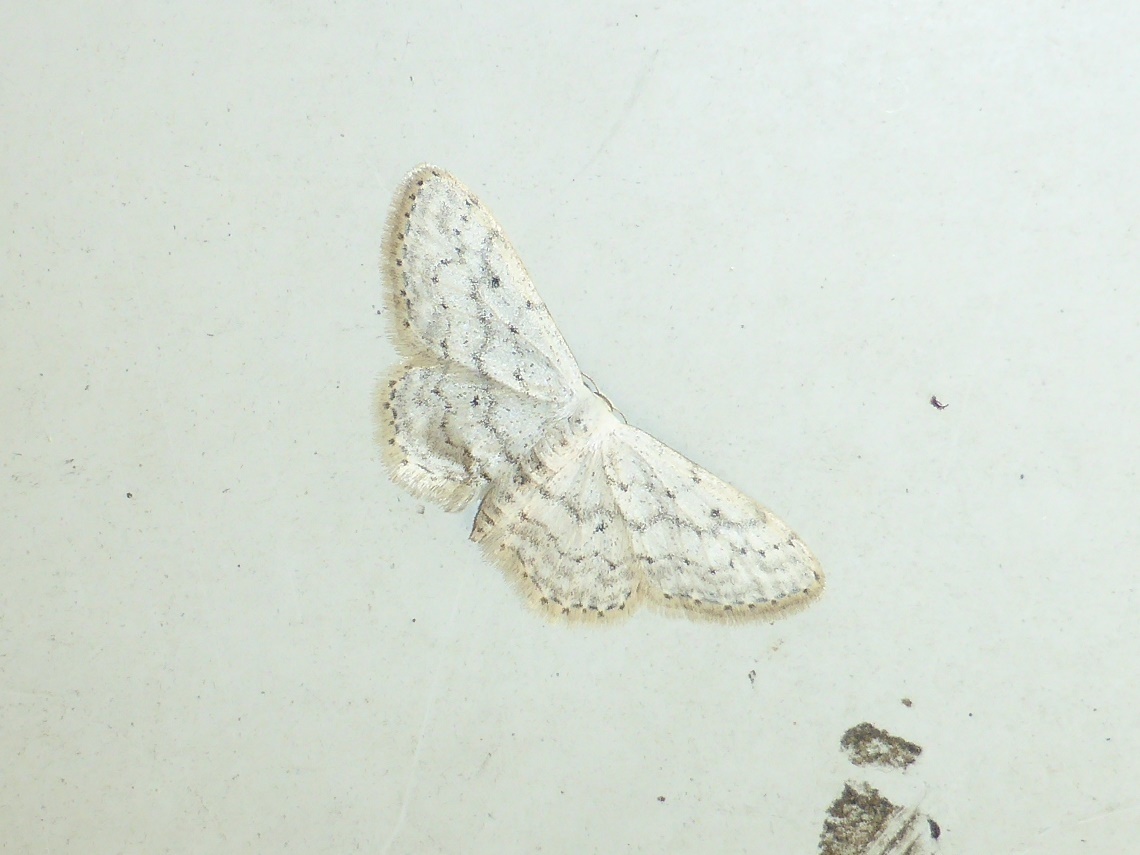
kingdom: Animalia
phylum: Arthropoda
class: Insecta
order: Lepidoptera
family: Geometridae
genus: Idaea
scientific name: Idaea seriata
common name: Small dusty wave
